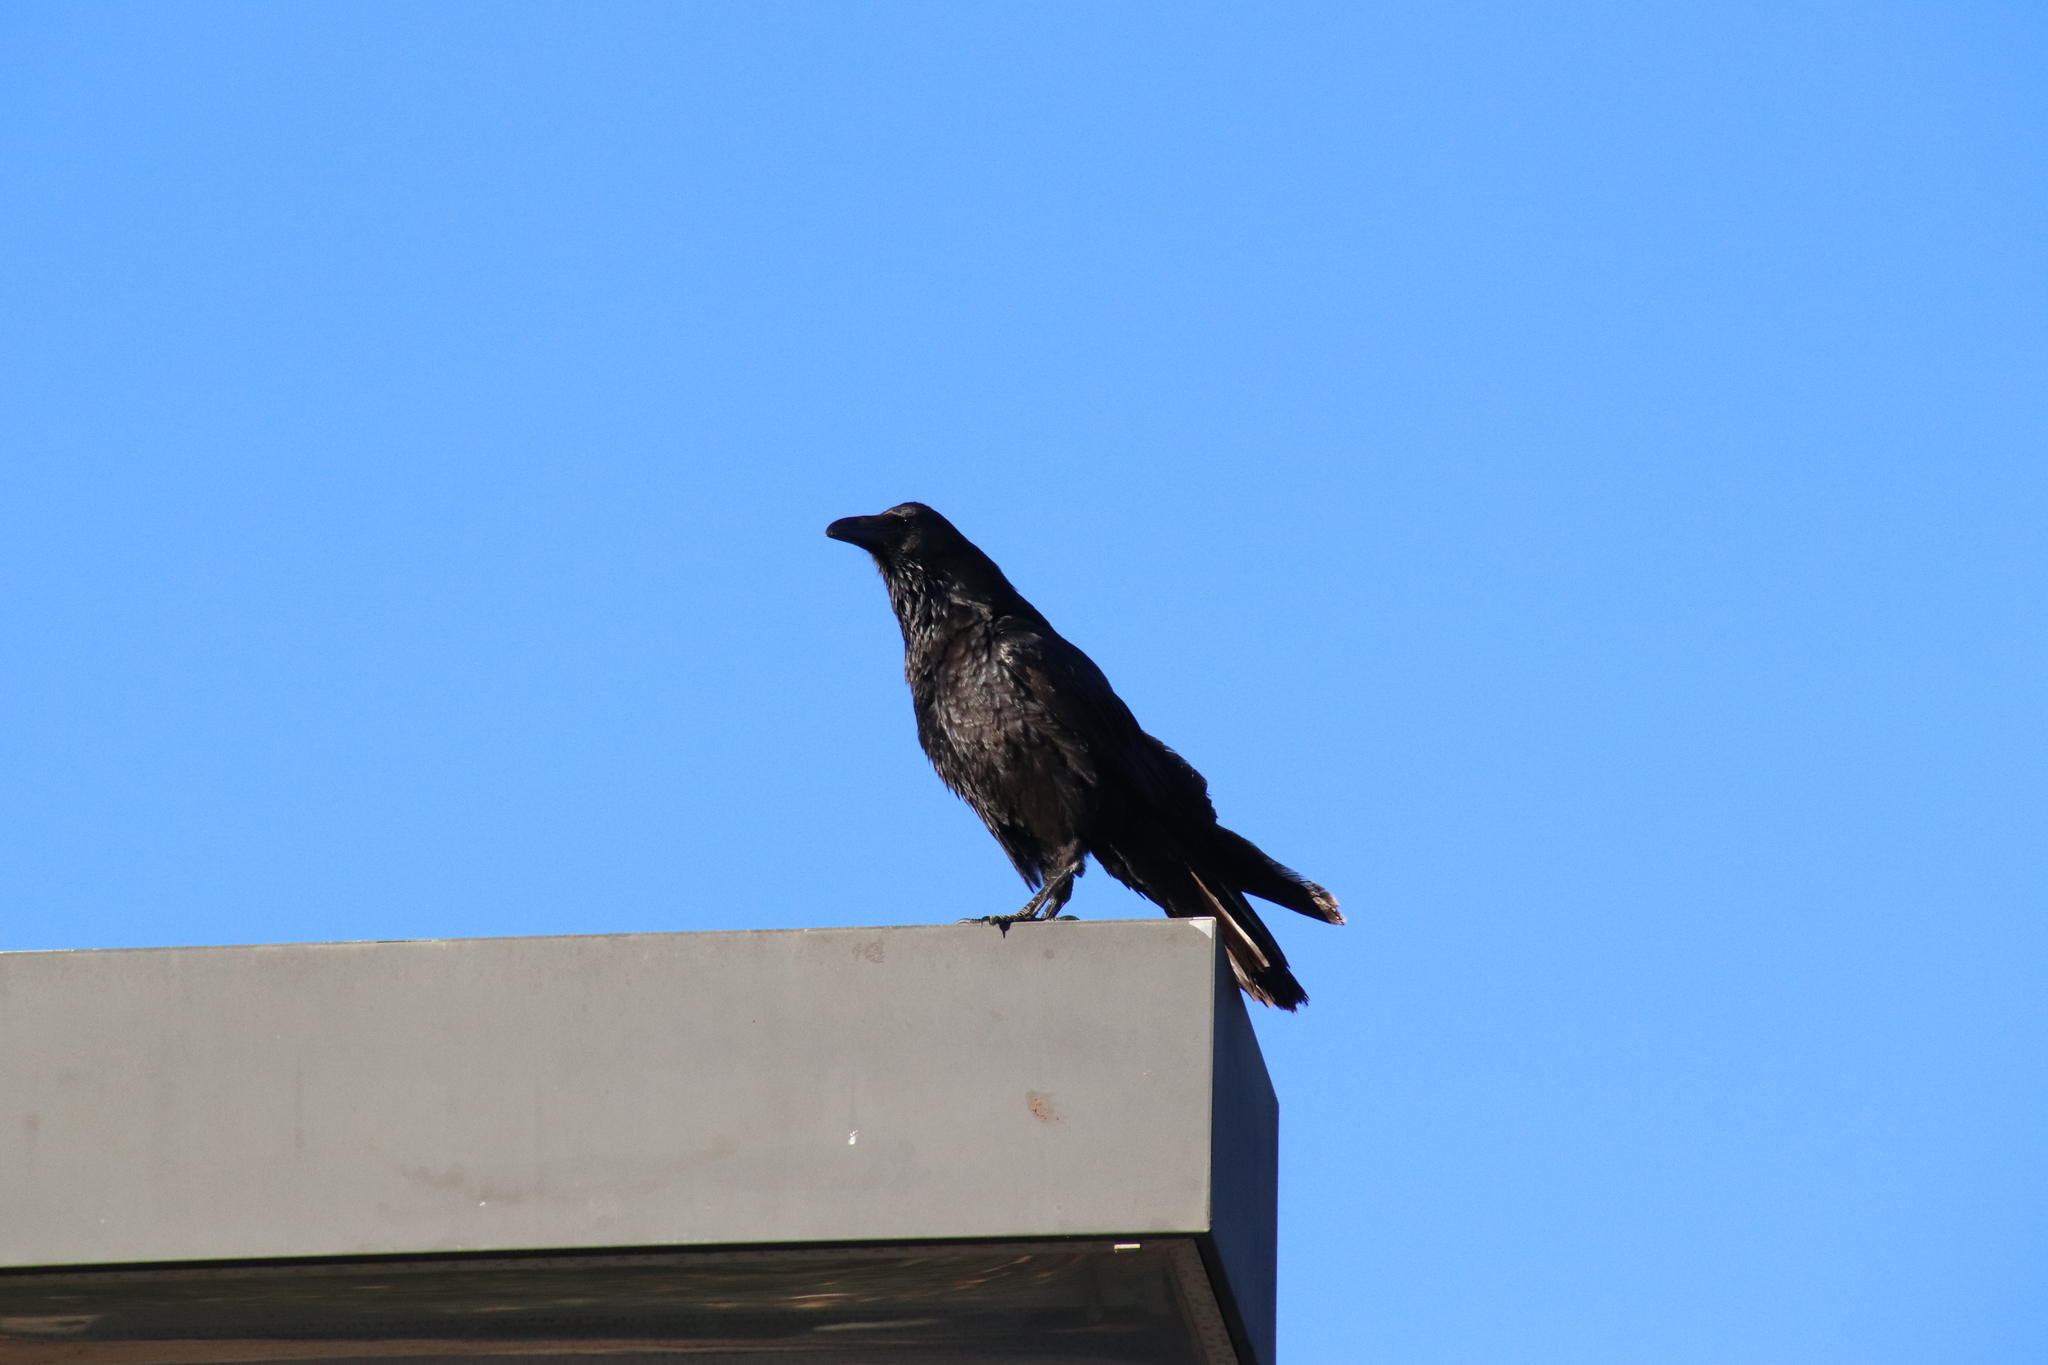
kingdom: Animalia
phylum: Chordata
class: Aves
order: Passeriformes
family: Corvidae
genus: Corvus
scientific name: Corvus corax
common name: Common raven
